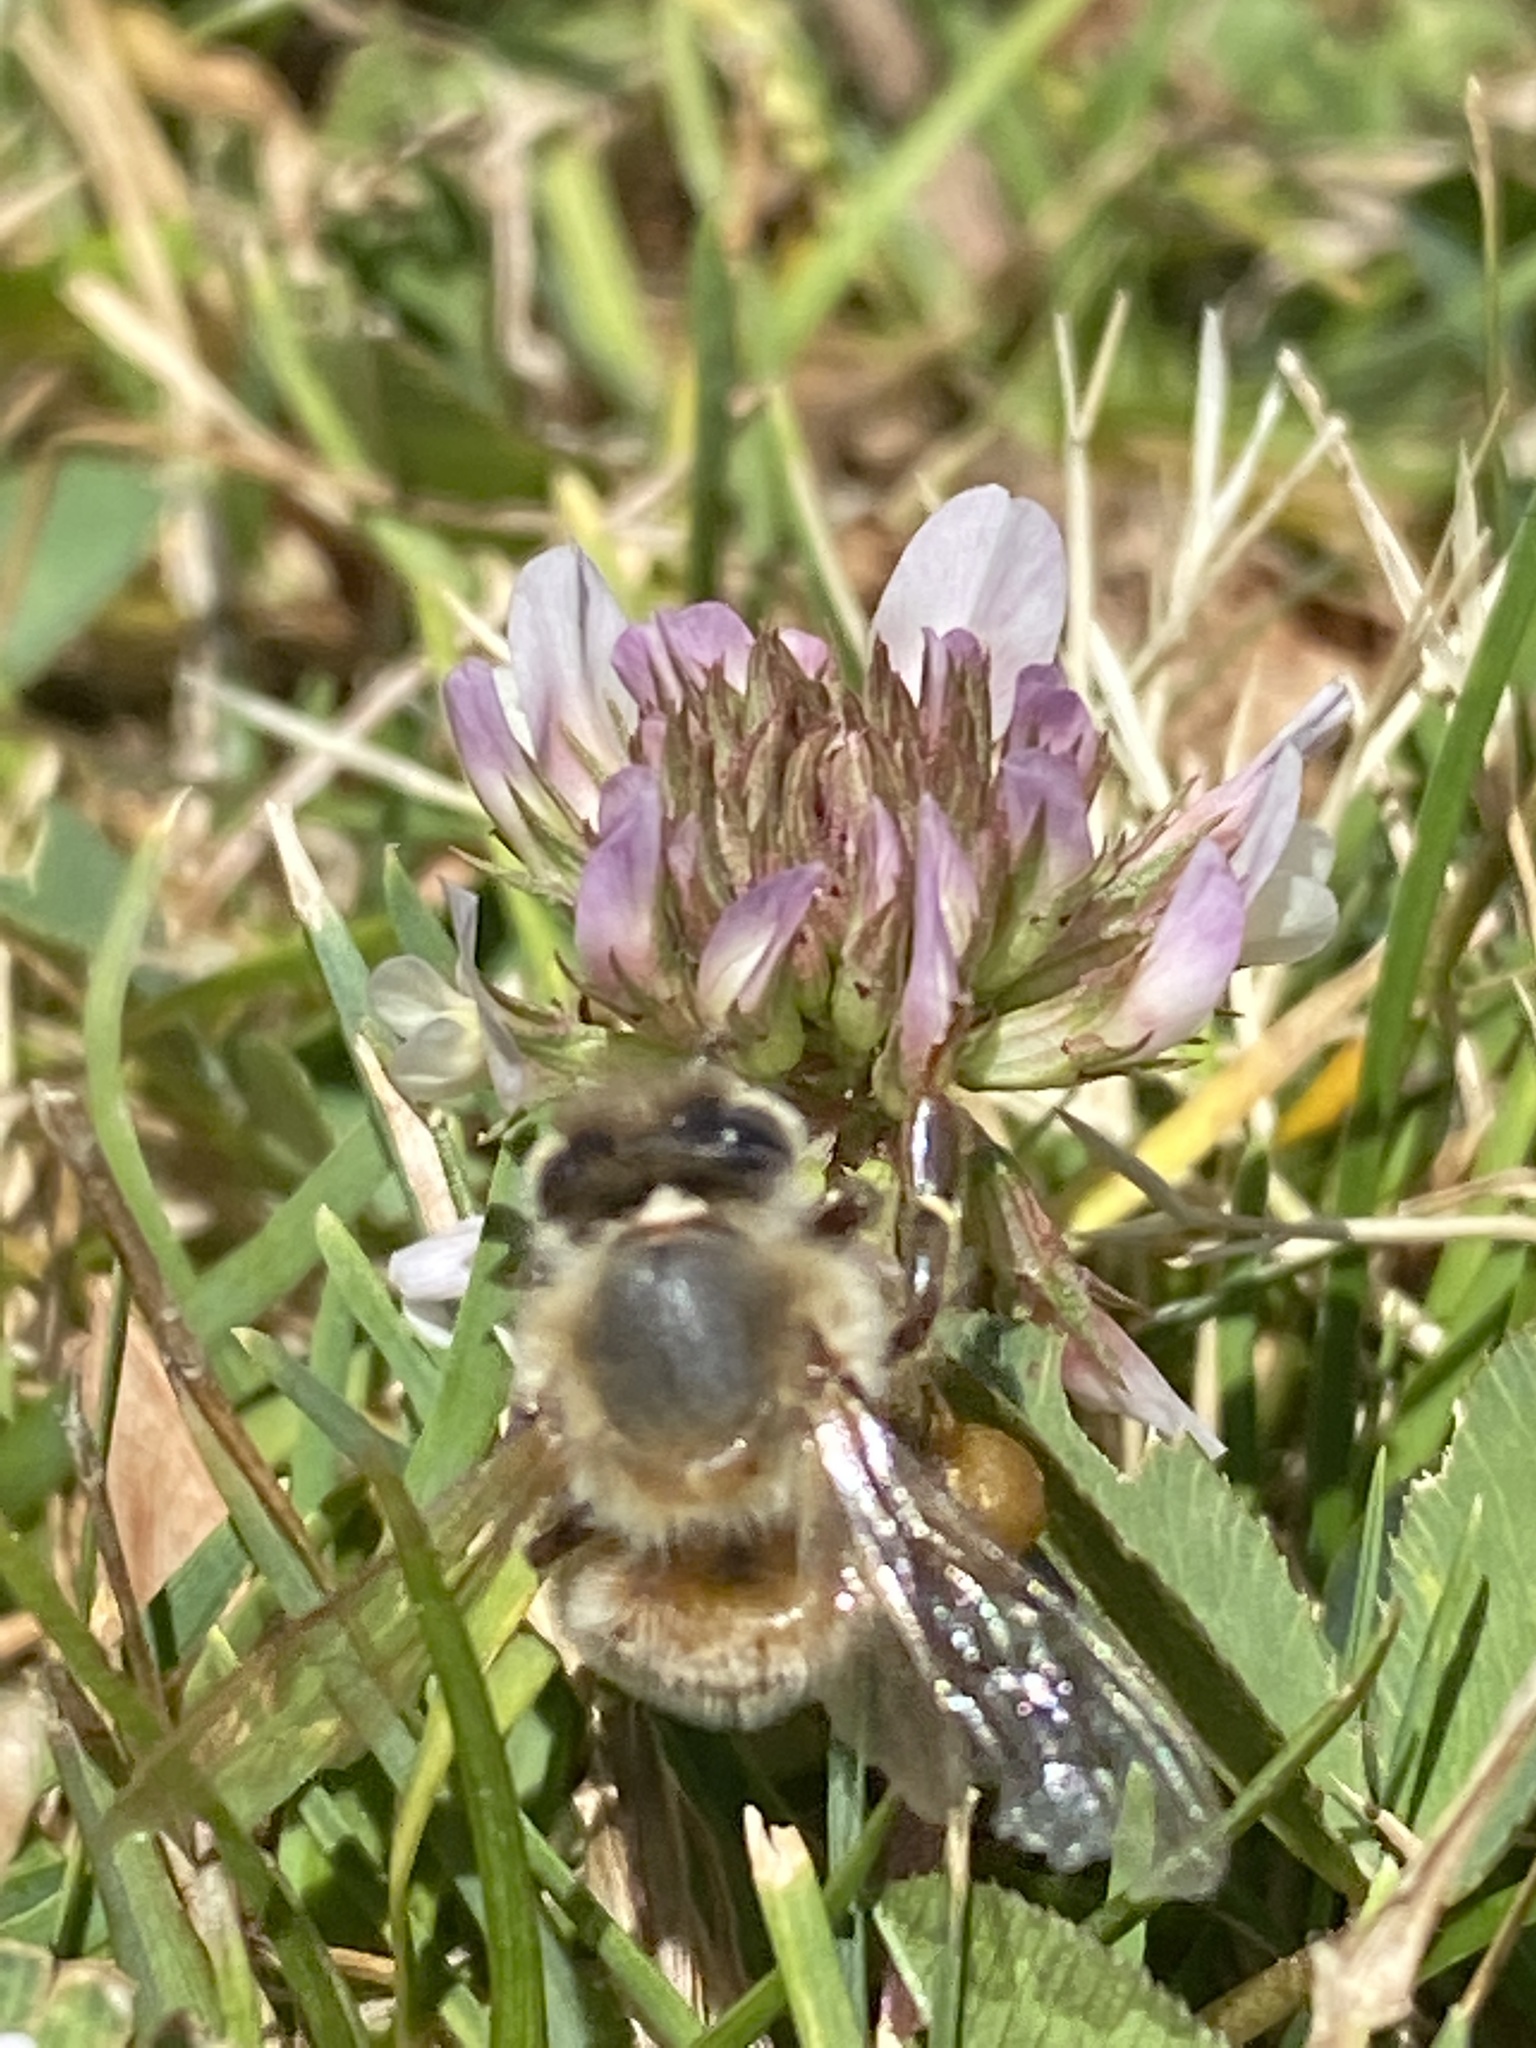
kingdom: Animalia
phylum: Arthropoda
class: Insecta
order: Hymenoptera
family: Apidae
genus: Apis
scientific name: Apis mellifera
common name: Honey bee
